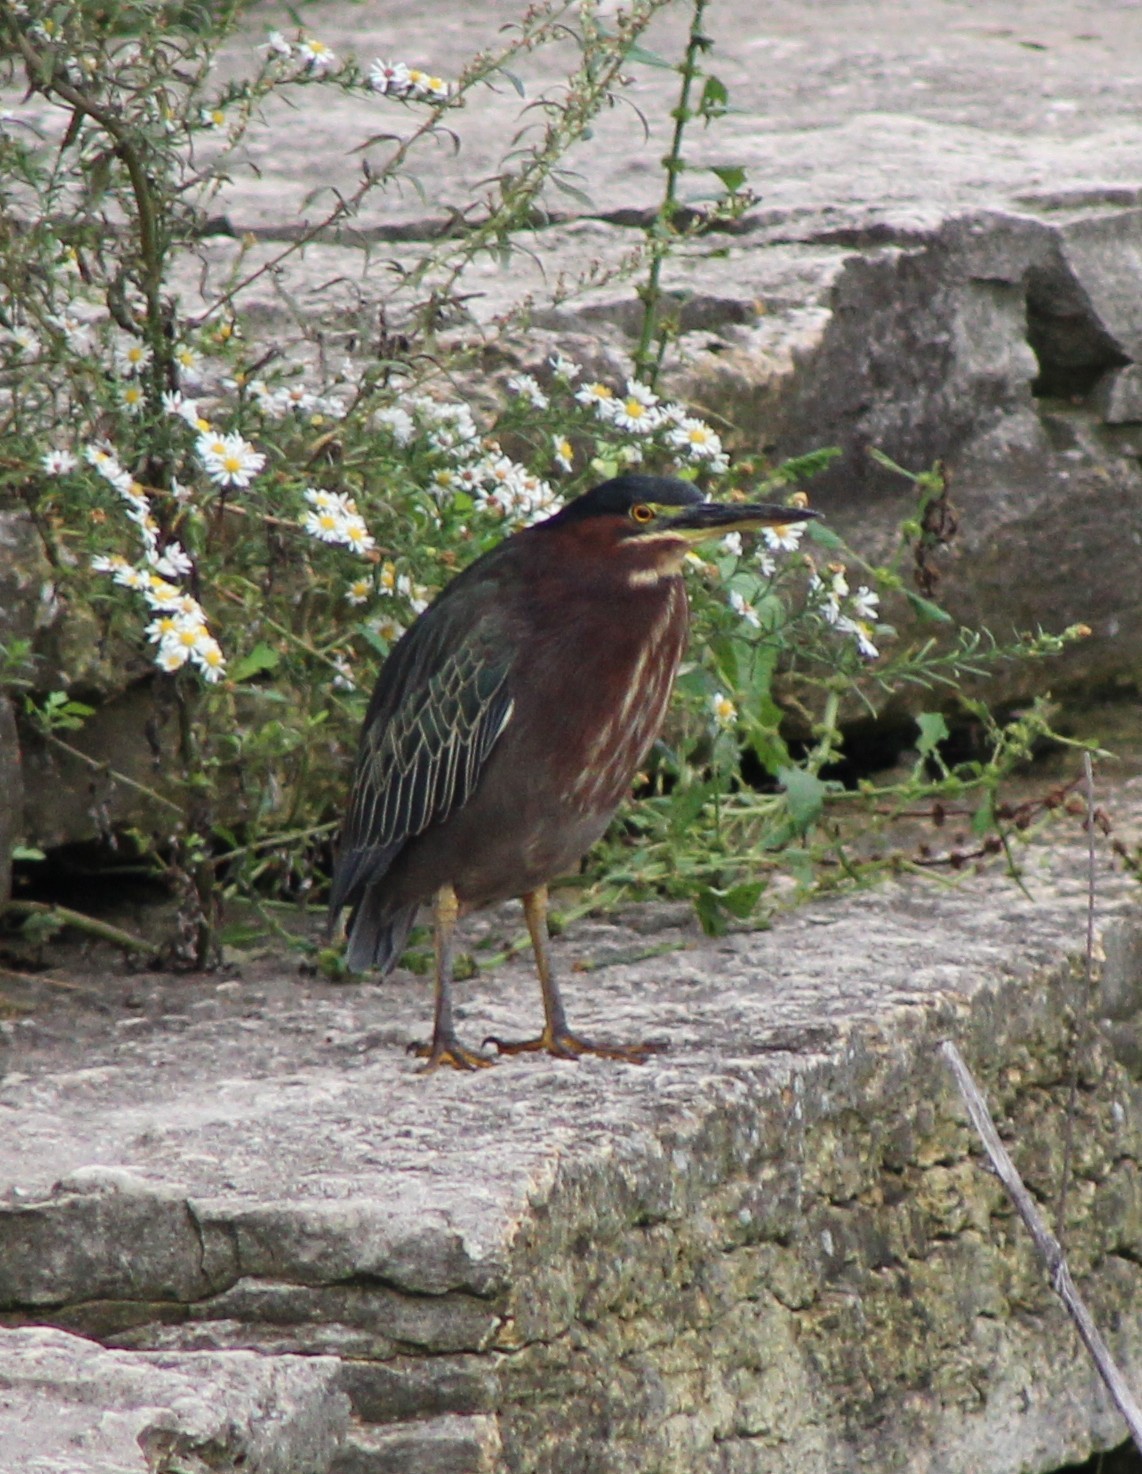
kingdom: Animalia
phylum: Chordata
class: Aves
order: Pelecaniformes
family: Ardeidae
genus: Butorides
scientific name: Butorides virescens
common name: Green heron
